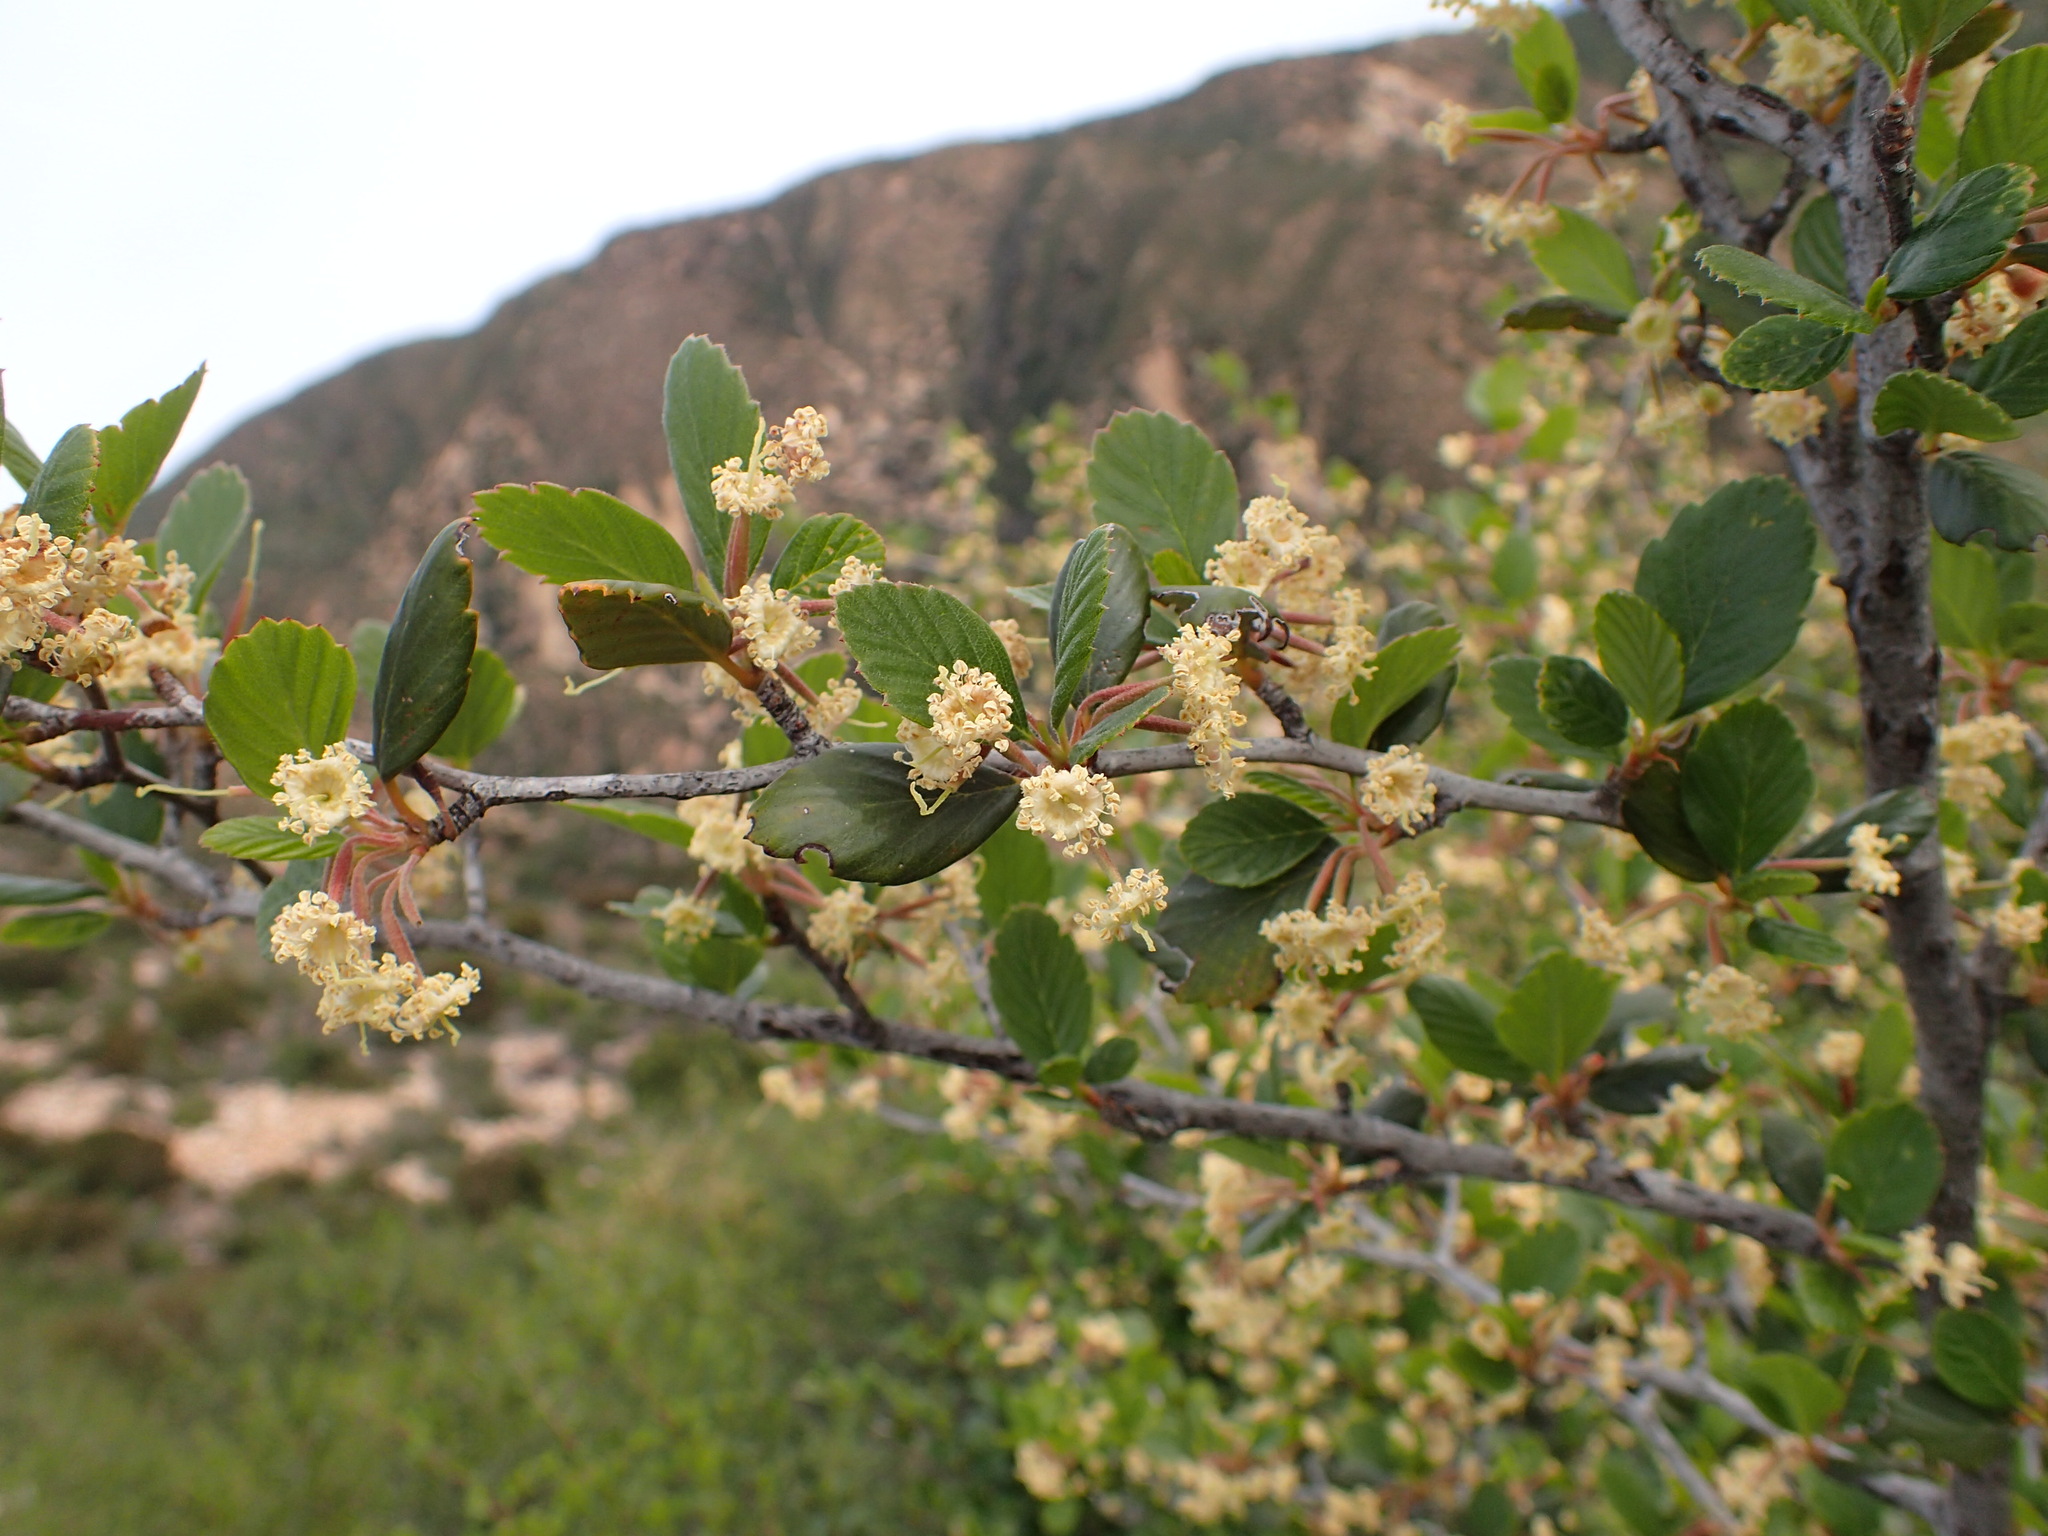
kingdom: Plantae
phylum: Tracheophyta
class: Magnoliopsida
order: Rosales
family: Rosaceae
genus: Cercocarpus
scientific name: Cercocarpus betuloides
